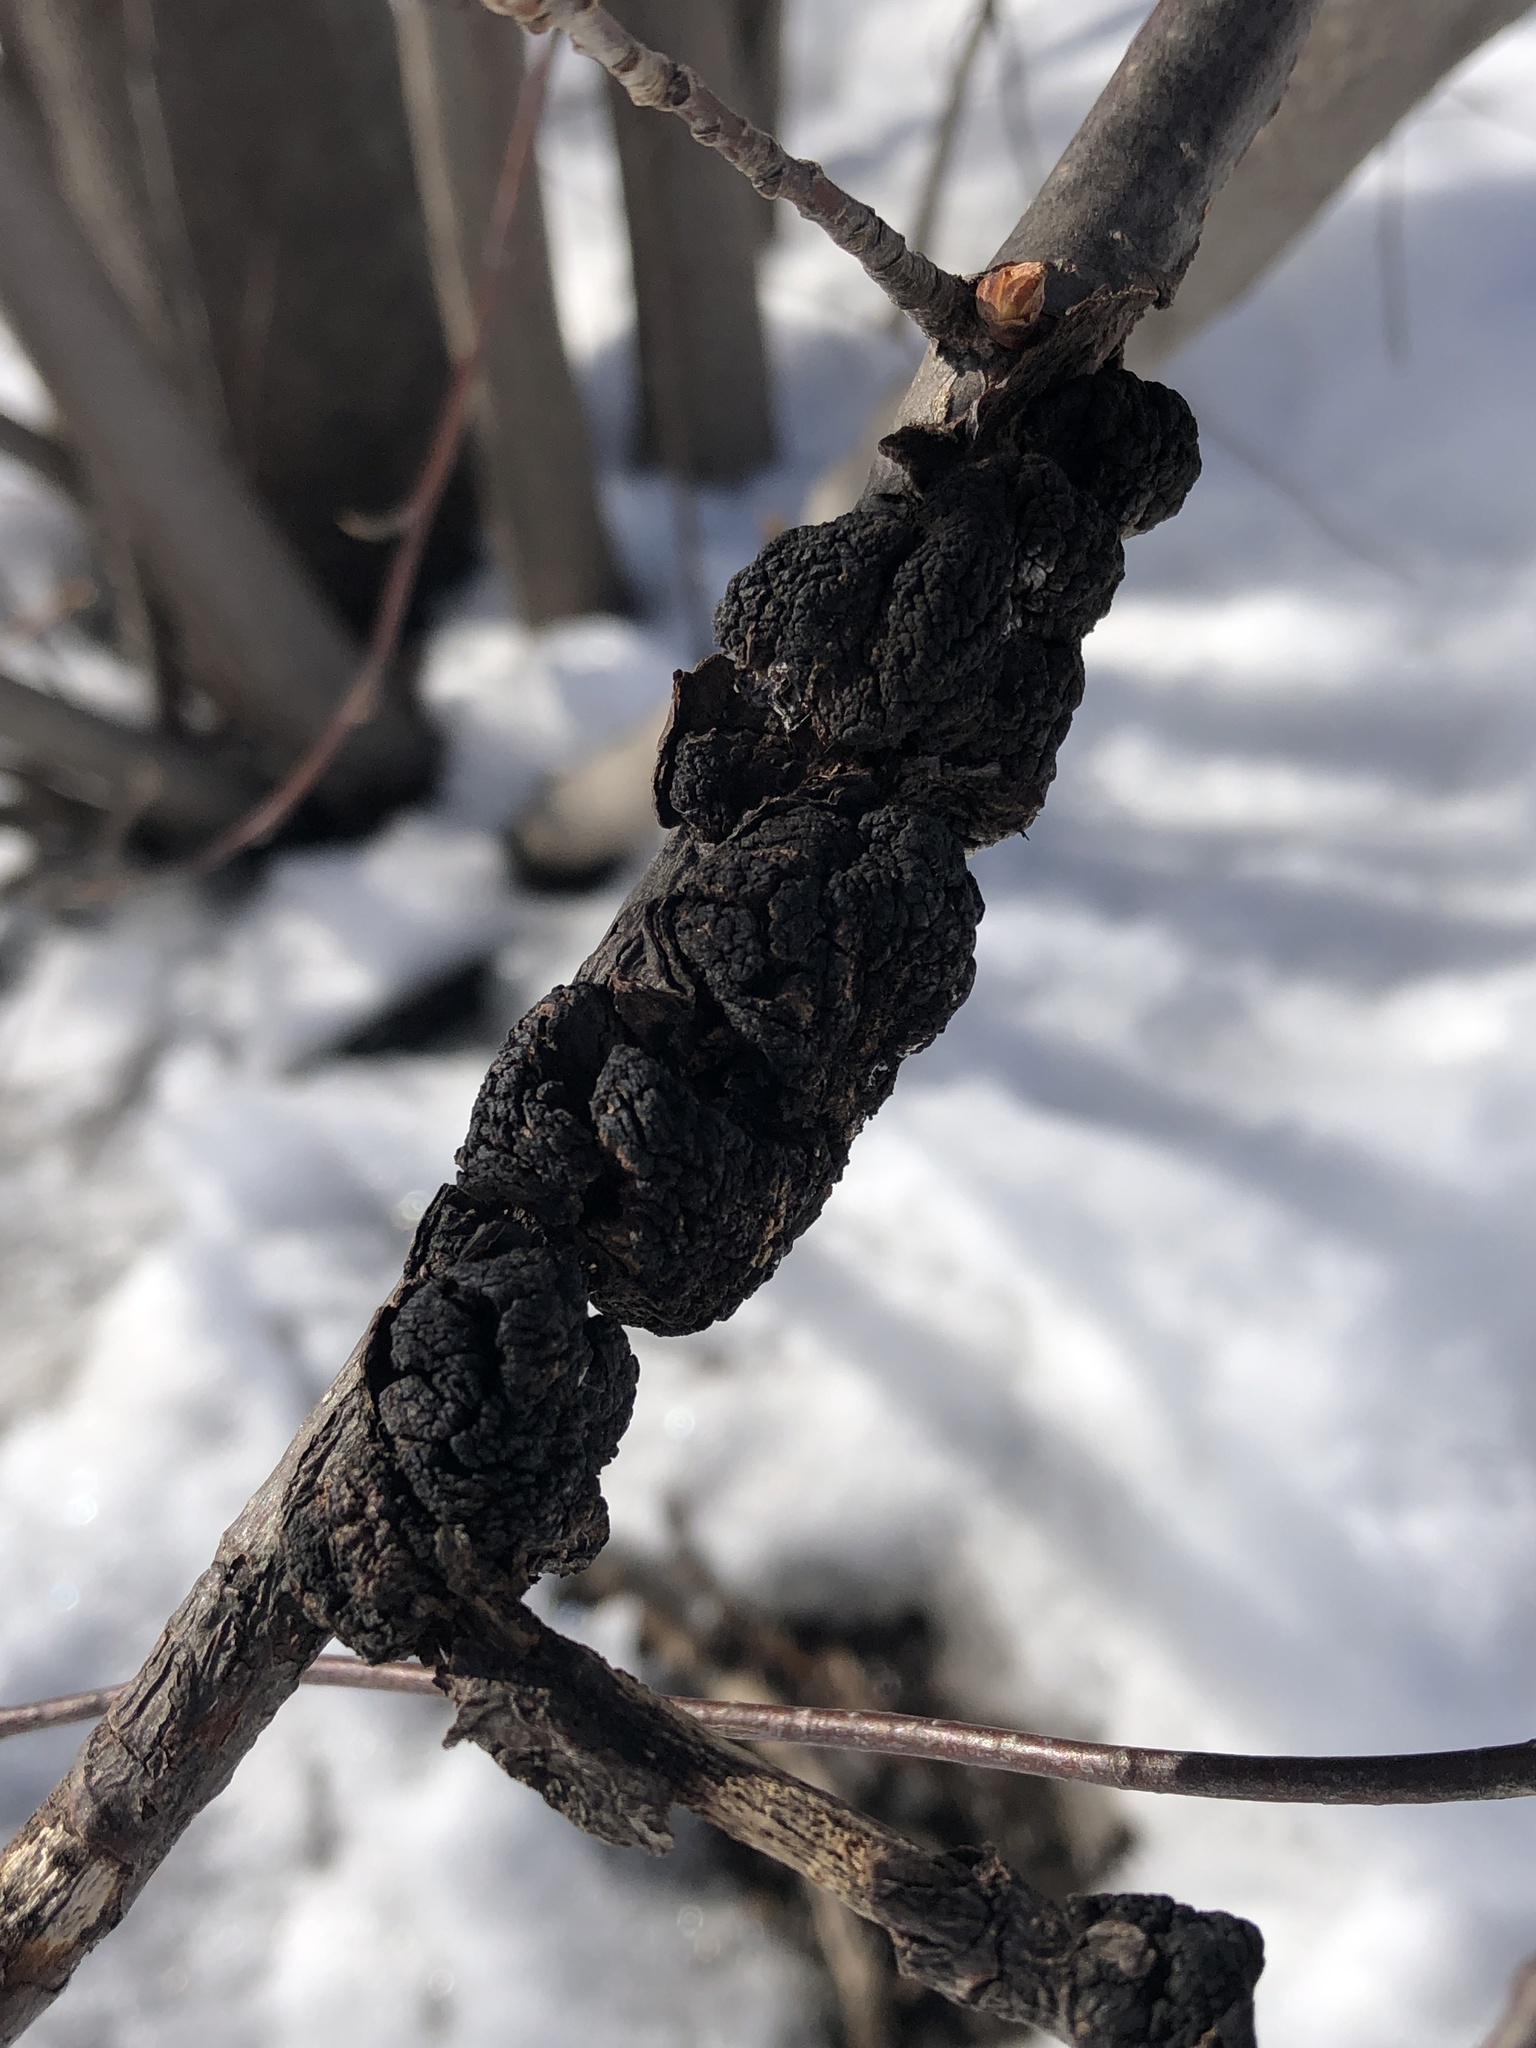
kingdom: Fungi
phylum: Ascomycota
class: Dothideomycetes
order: Venturiales
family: Venturiaceae
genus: Apiosporina
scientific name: Apiosporina morbosa
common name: Black knot
